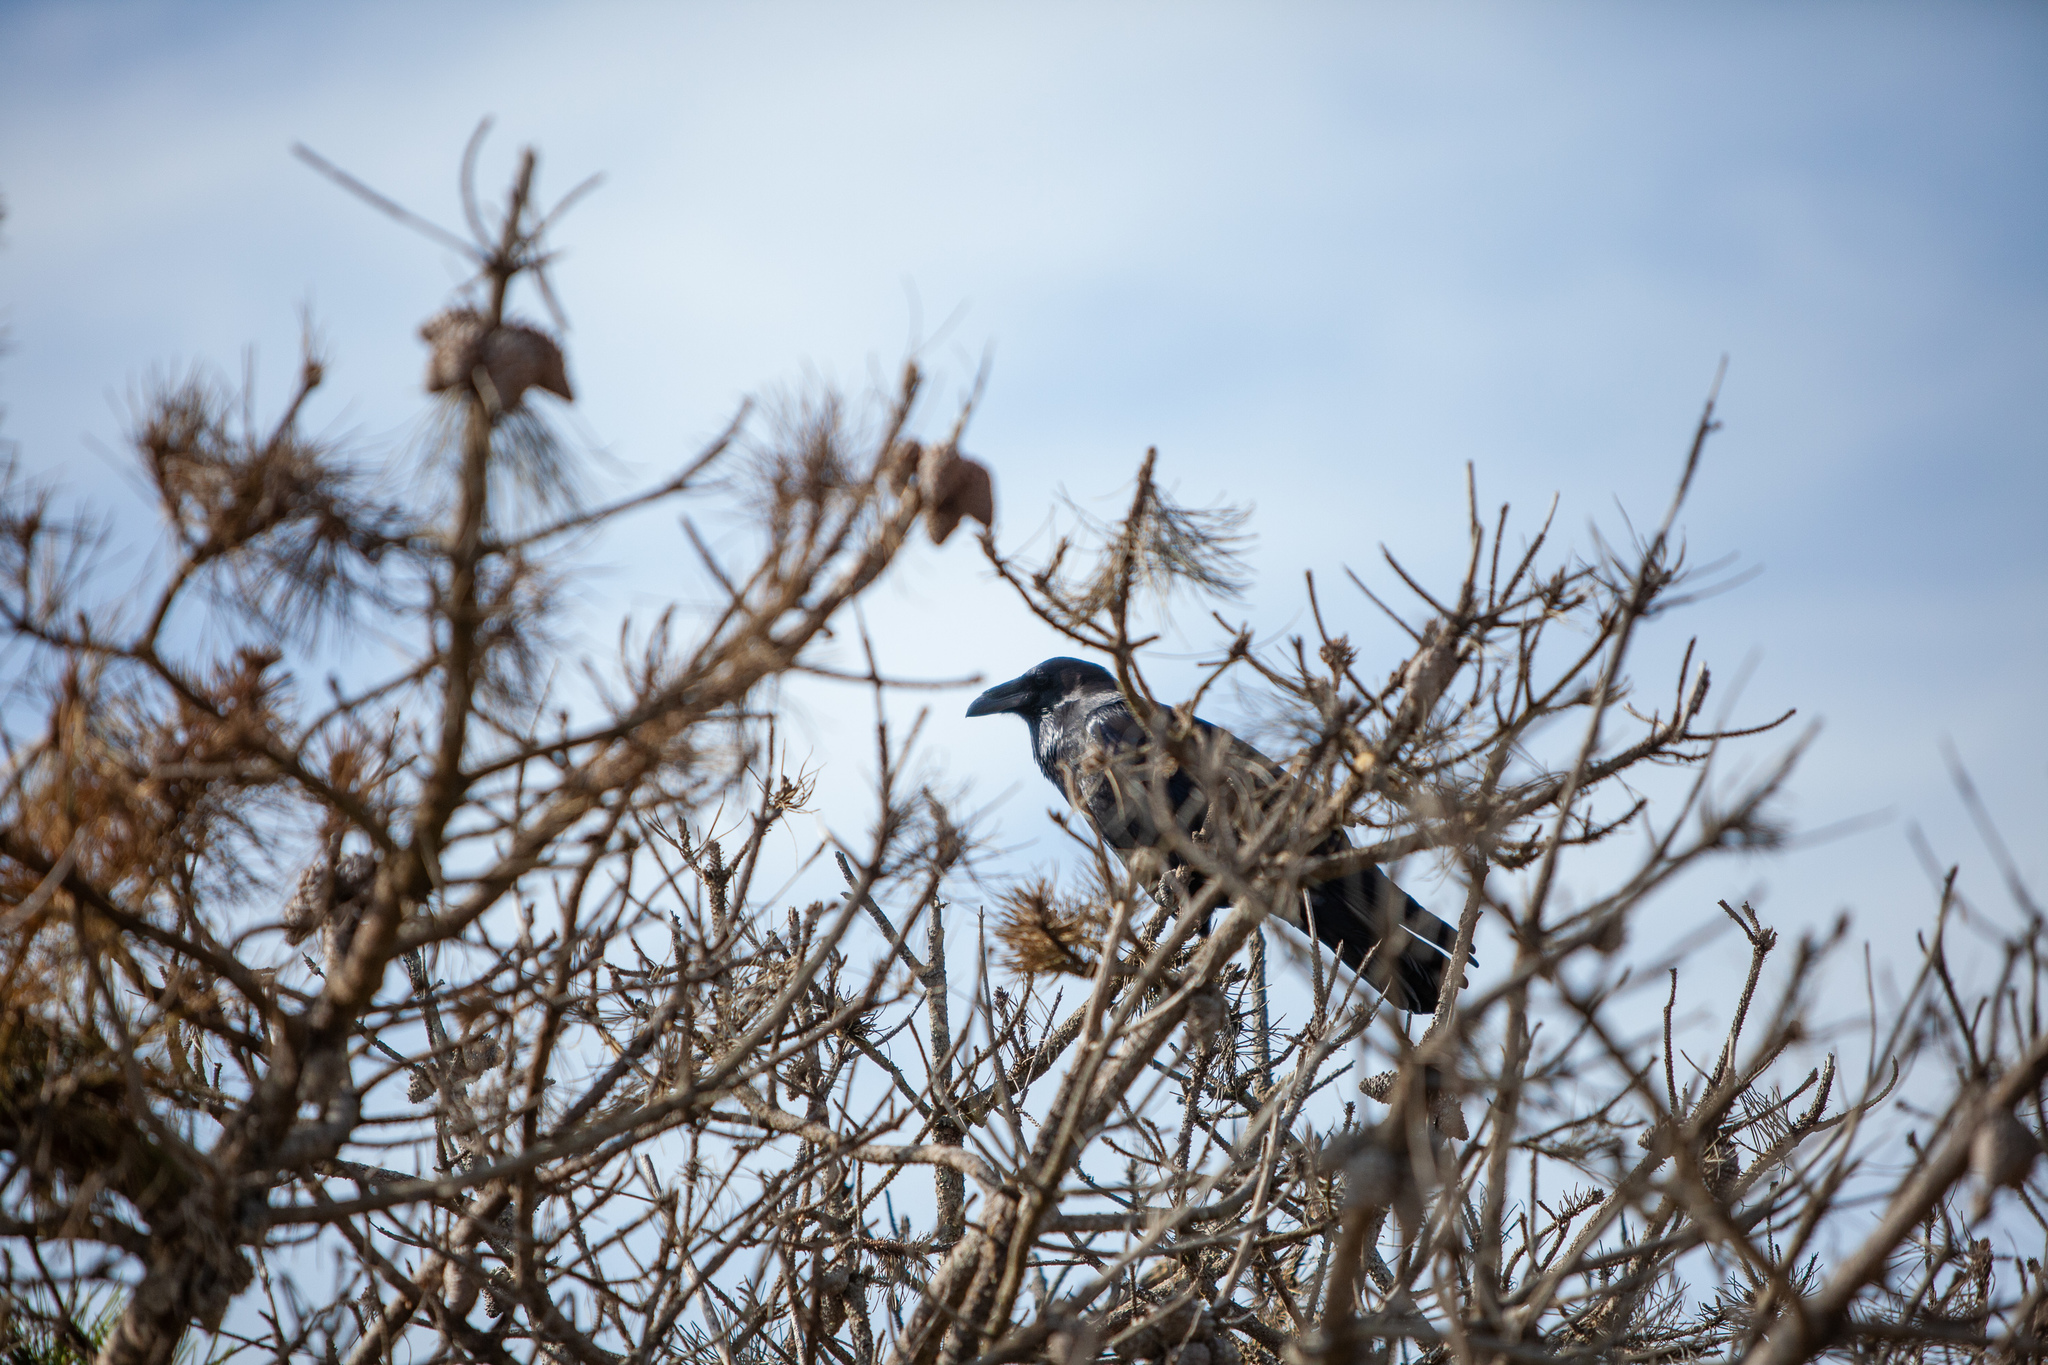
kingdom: Animalia
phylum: Chordata
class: Aves
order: Passeriformes
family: Corvidae
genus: Corvus
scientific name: Corvus corax
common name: Common raven
